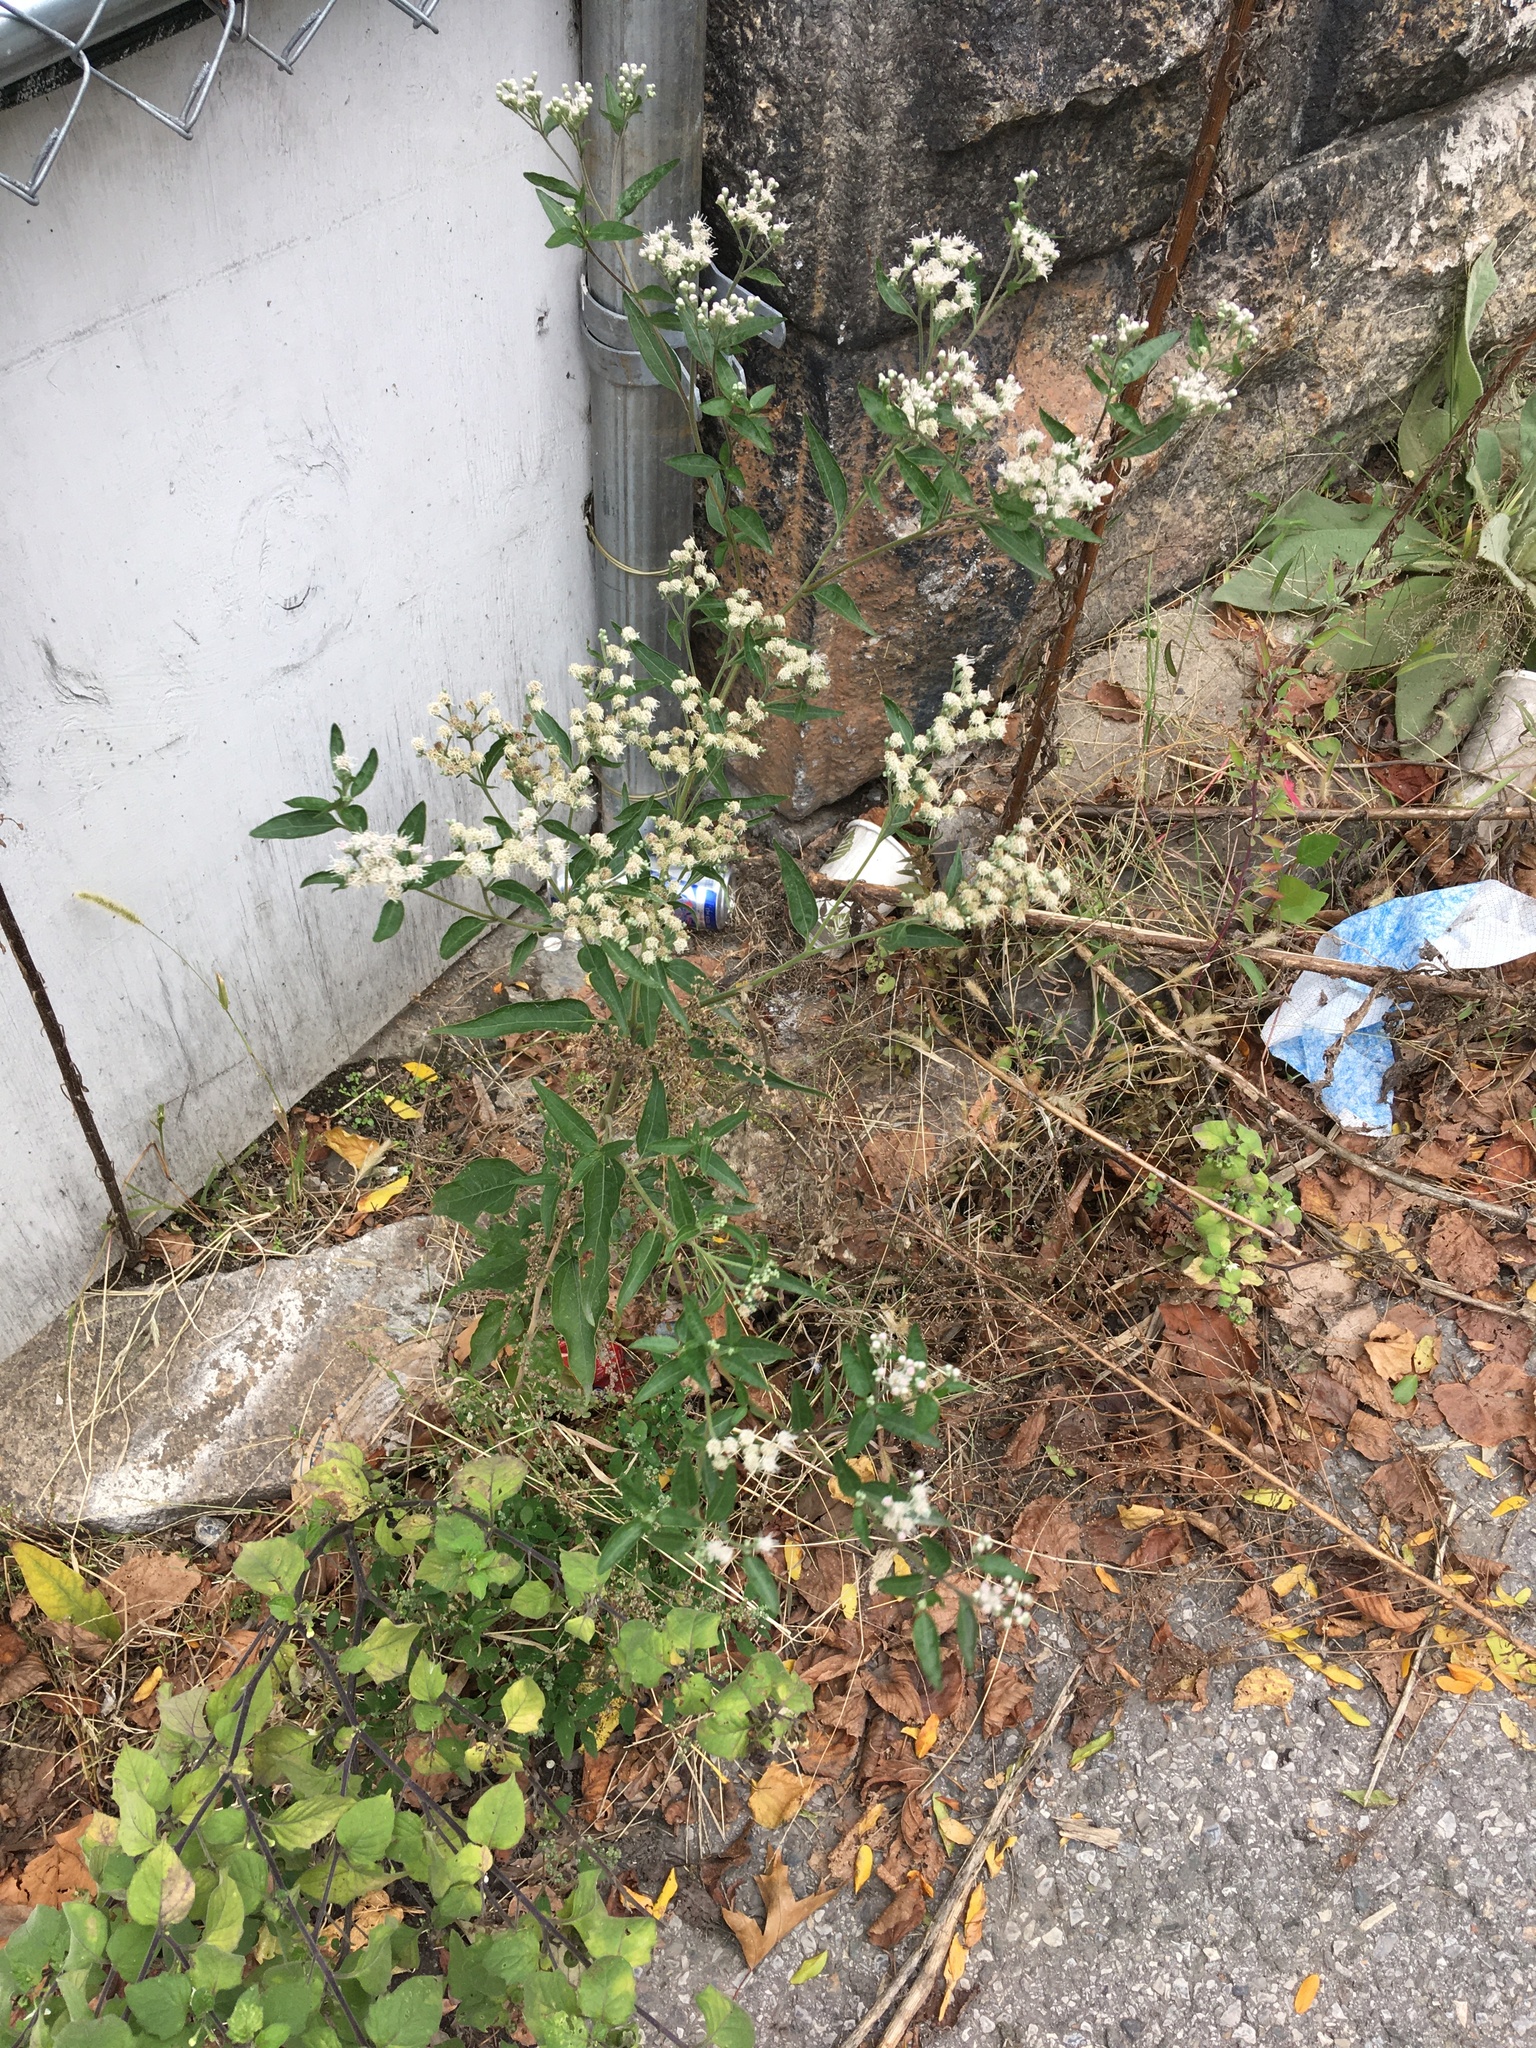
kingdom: Plantae
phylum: Tracheophyta
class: Magnoliopsida
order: Asterales
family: Asteraceae
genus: Eupatorium
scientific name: Eupatorium serotinum
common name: Late boneset
